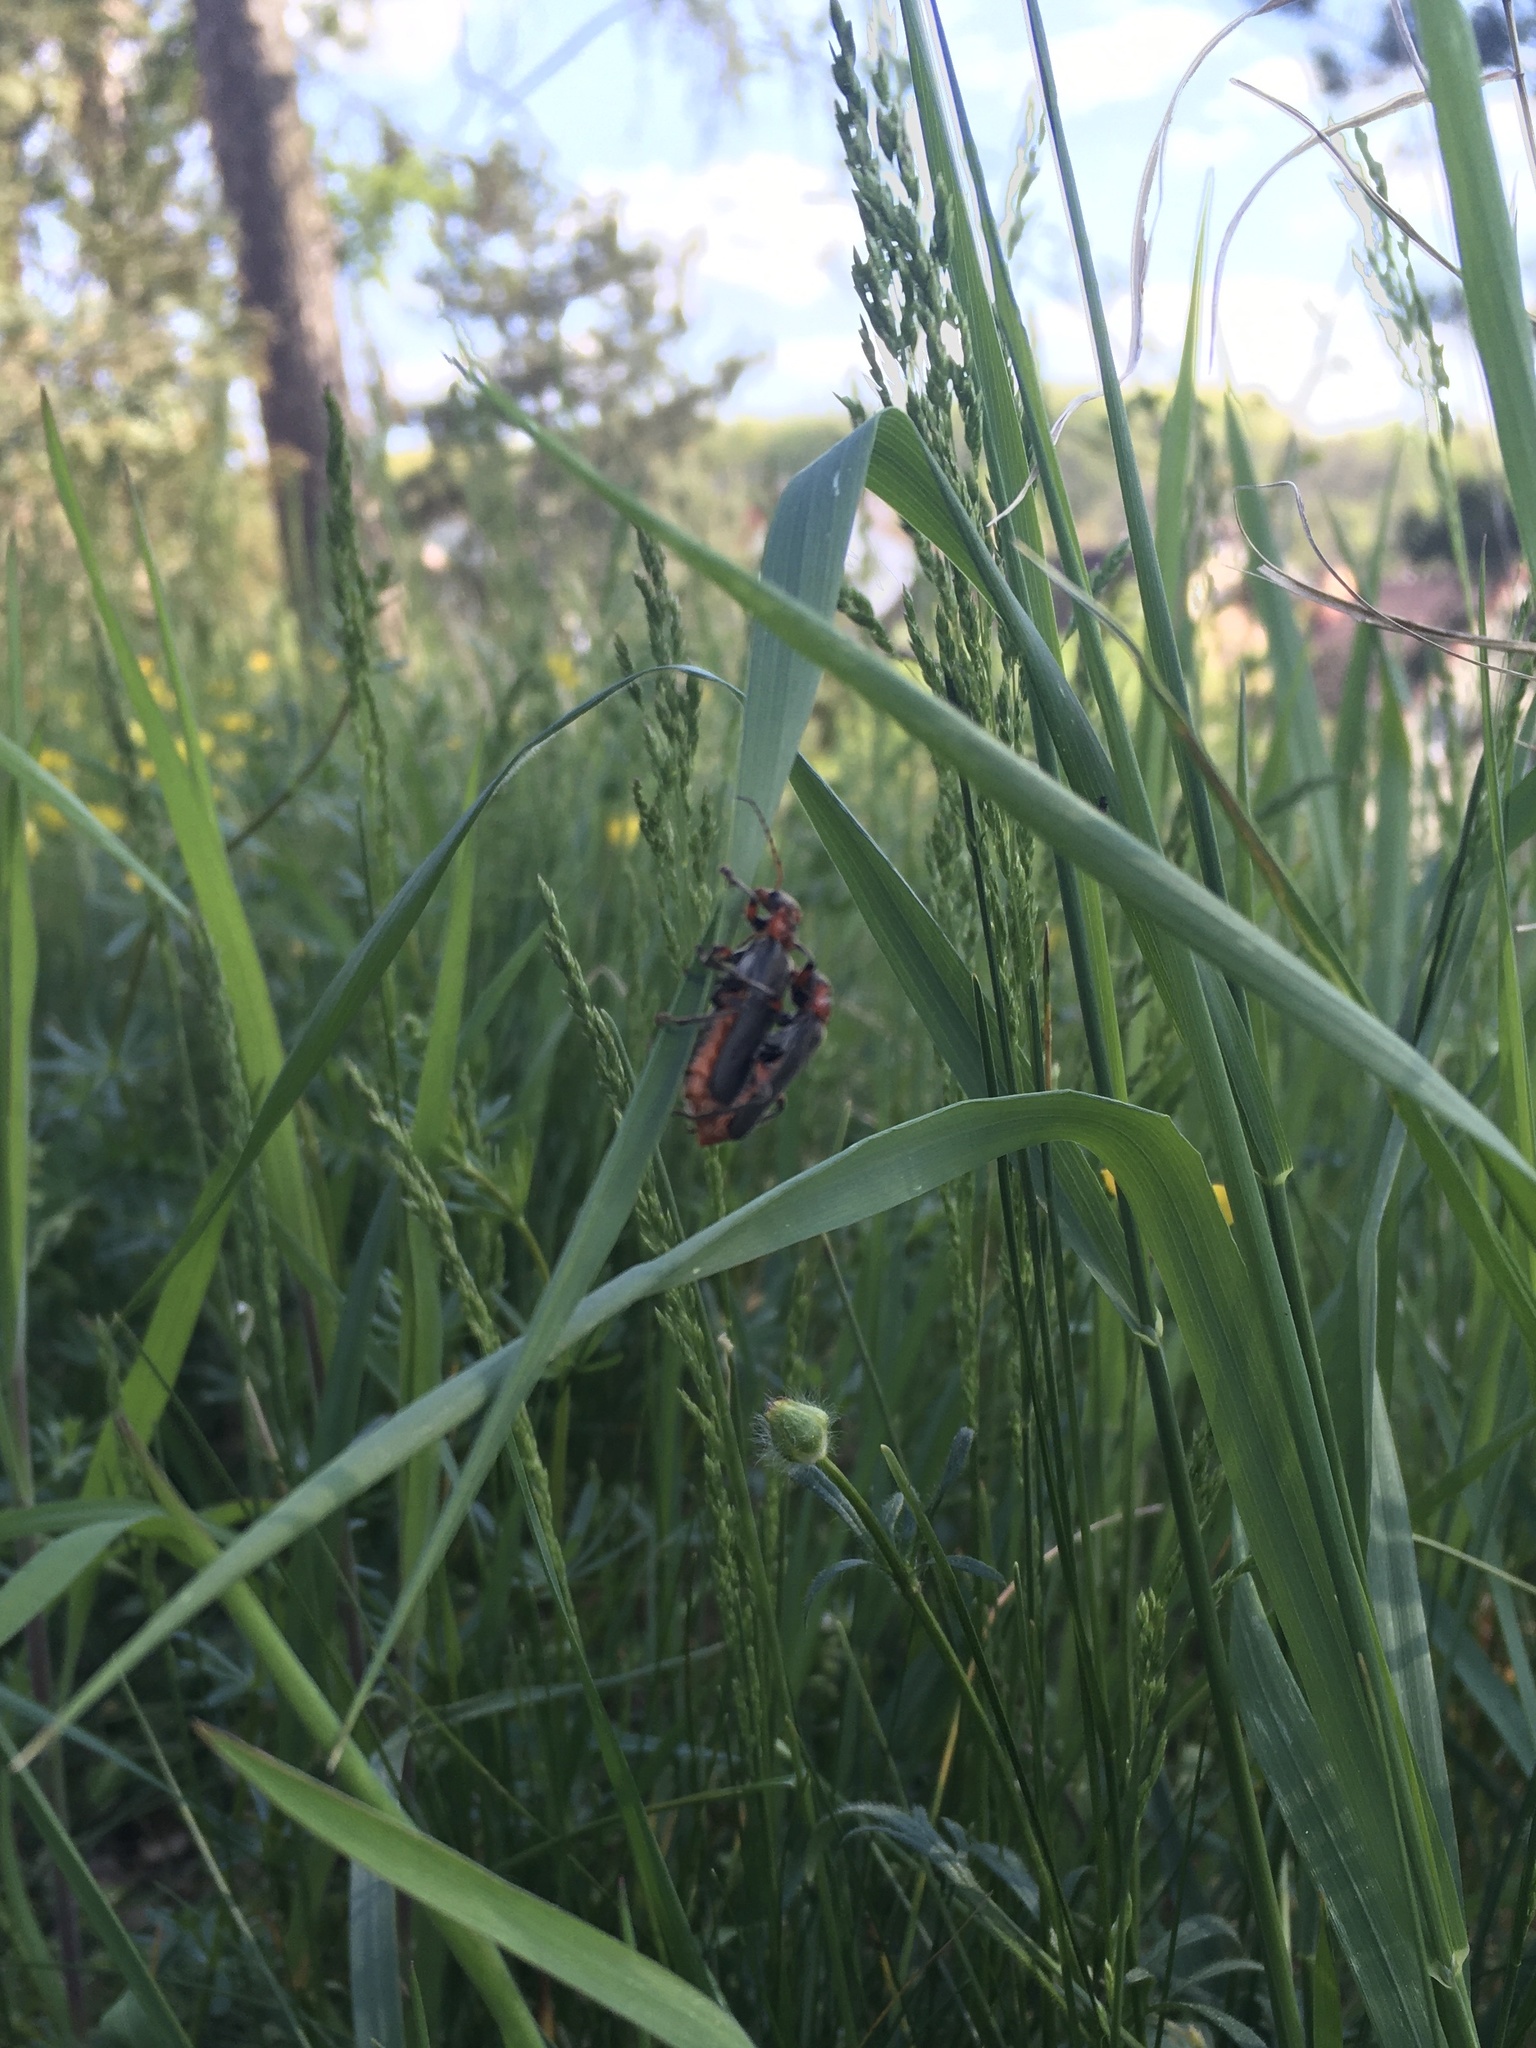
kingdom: Animalia
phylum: Arthropoda
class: Insecta
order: Coleoptera
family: Cantharidae
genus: Cantharis
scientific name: Cantharis rustica
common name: Soldier beetle
